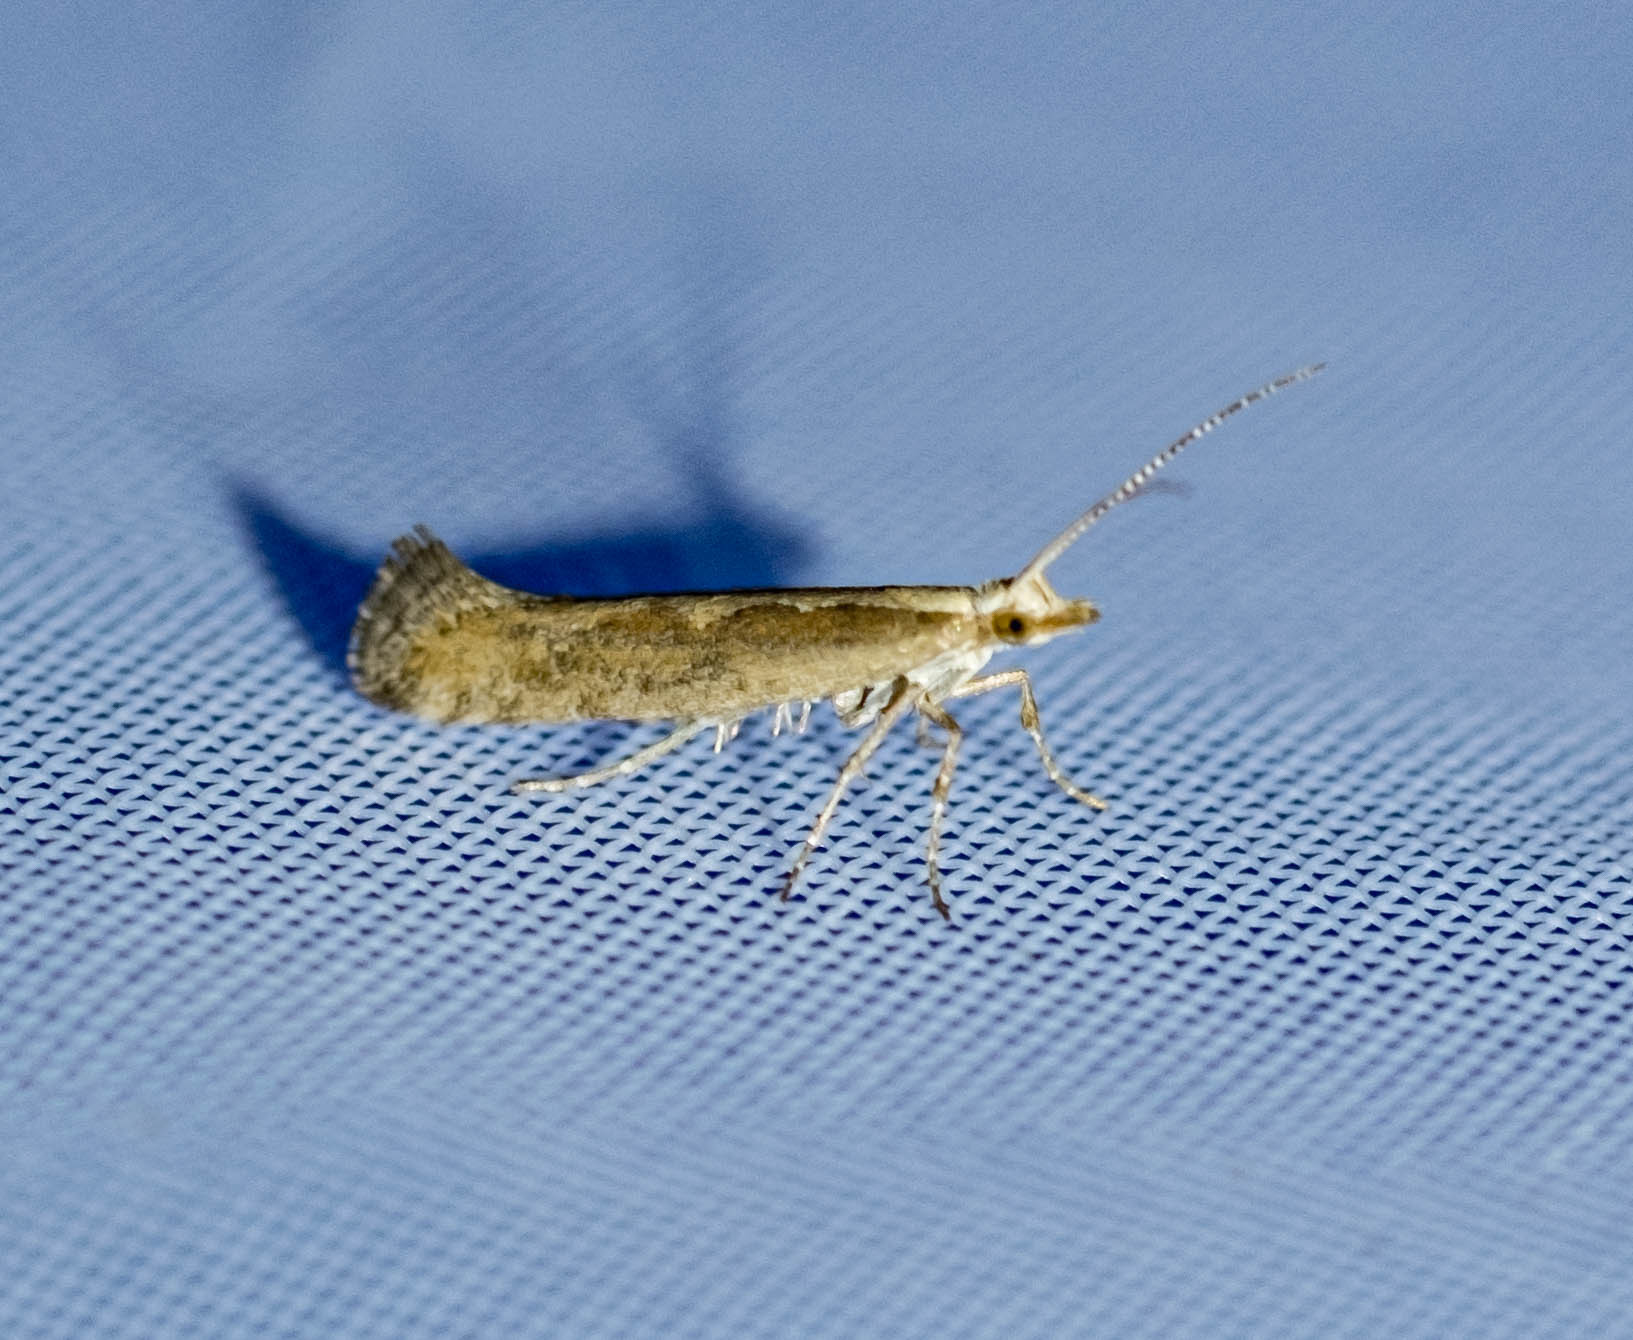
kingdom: Animalia
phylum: Arthropoda
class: Insecta
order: Lepidoptera
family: Plutellidae
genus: Plutella
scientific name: Plutella xylostella
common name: Diamond-back moth
